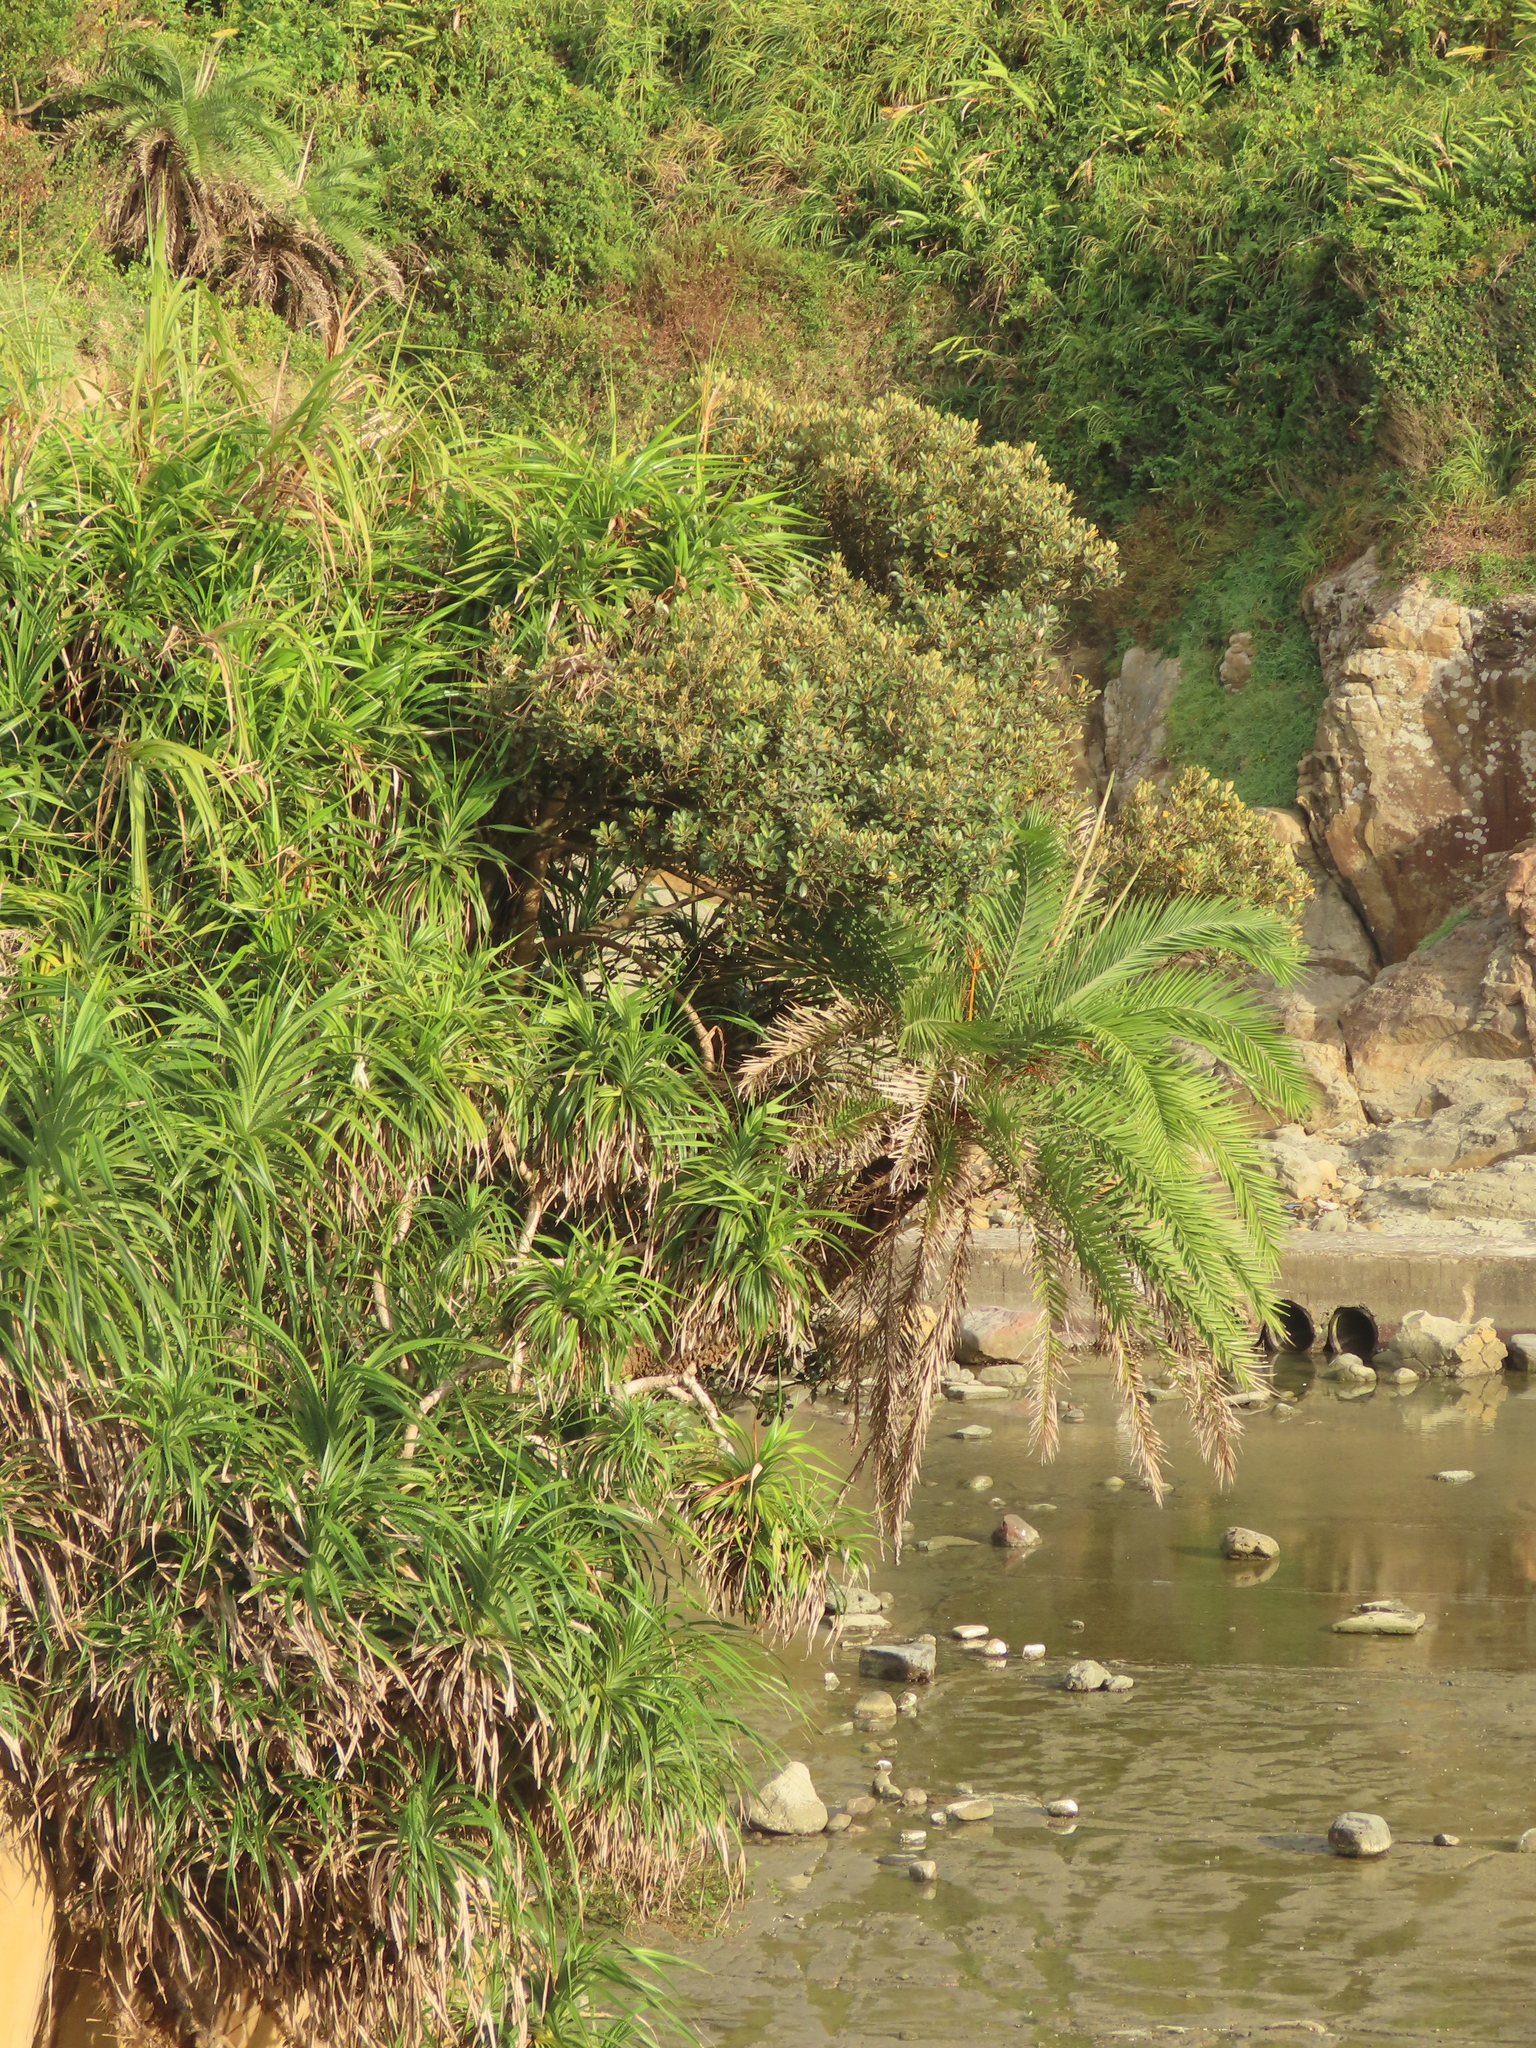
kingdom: Plantae
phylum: Tracheophyta
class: Liliopsida
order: Arecales
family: Arecaceae
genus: Phoenix
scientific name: Phoenix loureiroi
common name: Loureiro's palm
